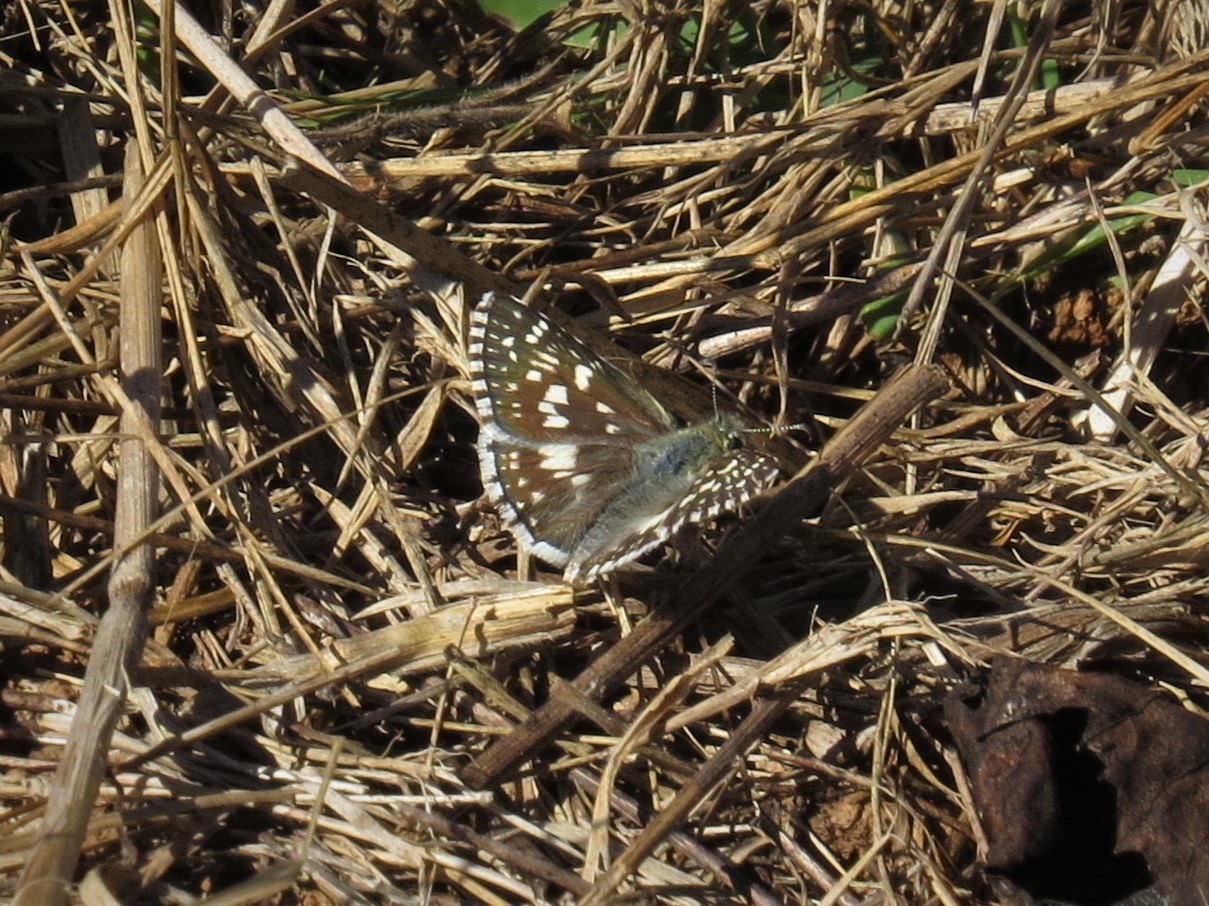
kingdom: Animalia
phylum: Arthropoda
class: Insecta
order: Lepidoptera
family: Hesperiidae
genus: Burnsius
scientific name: Burnsius communis
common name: Common checkered-skipper
